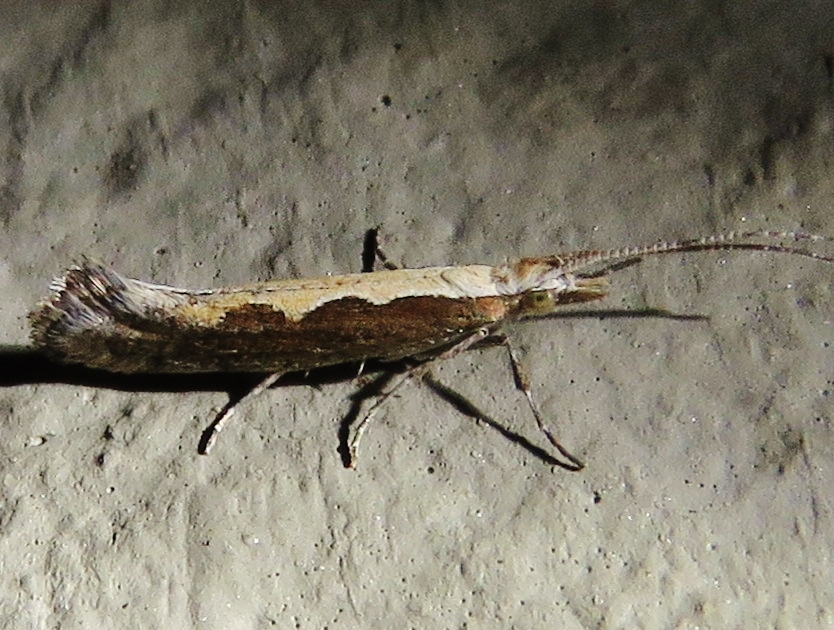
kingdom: Animalia
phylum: Arthropoda
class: Insecta
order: Lepidoptera
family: Plutellidae
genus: Plutella
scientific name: Plutella xylostella
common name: Diamond-back moth
